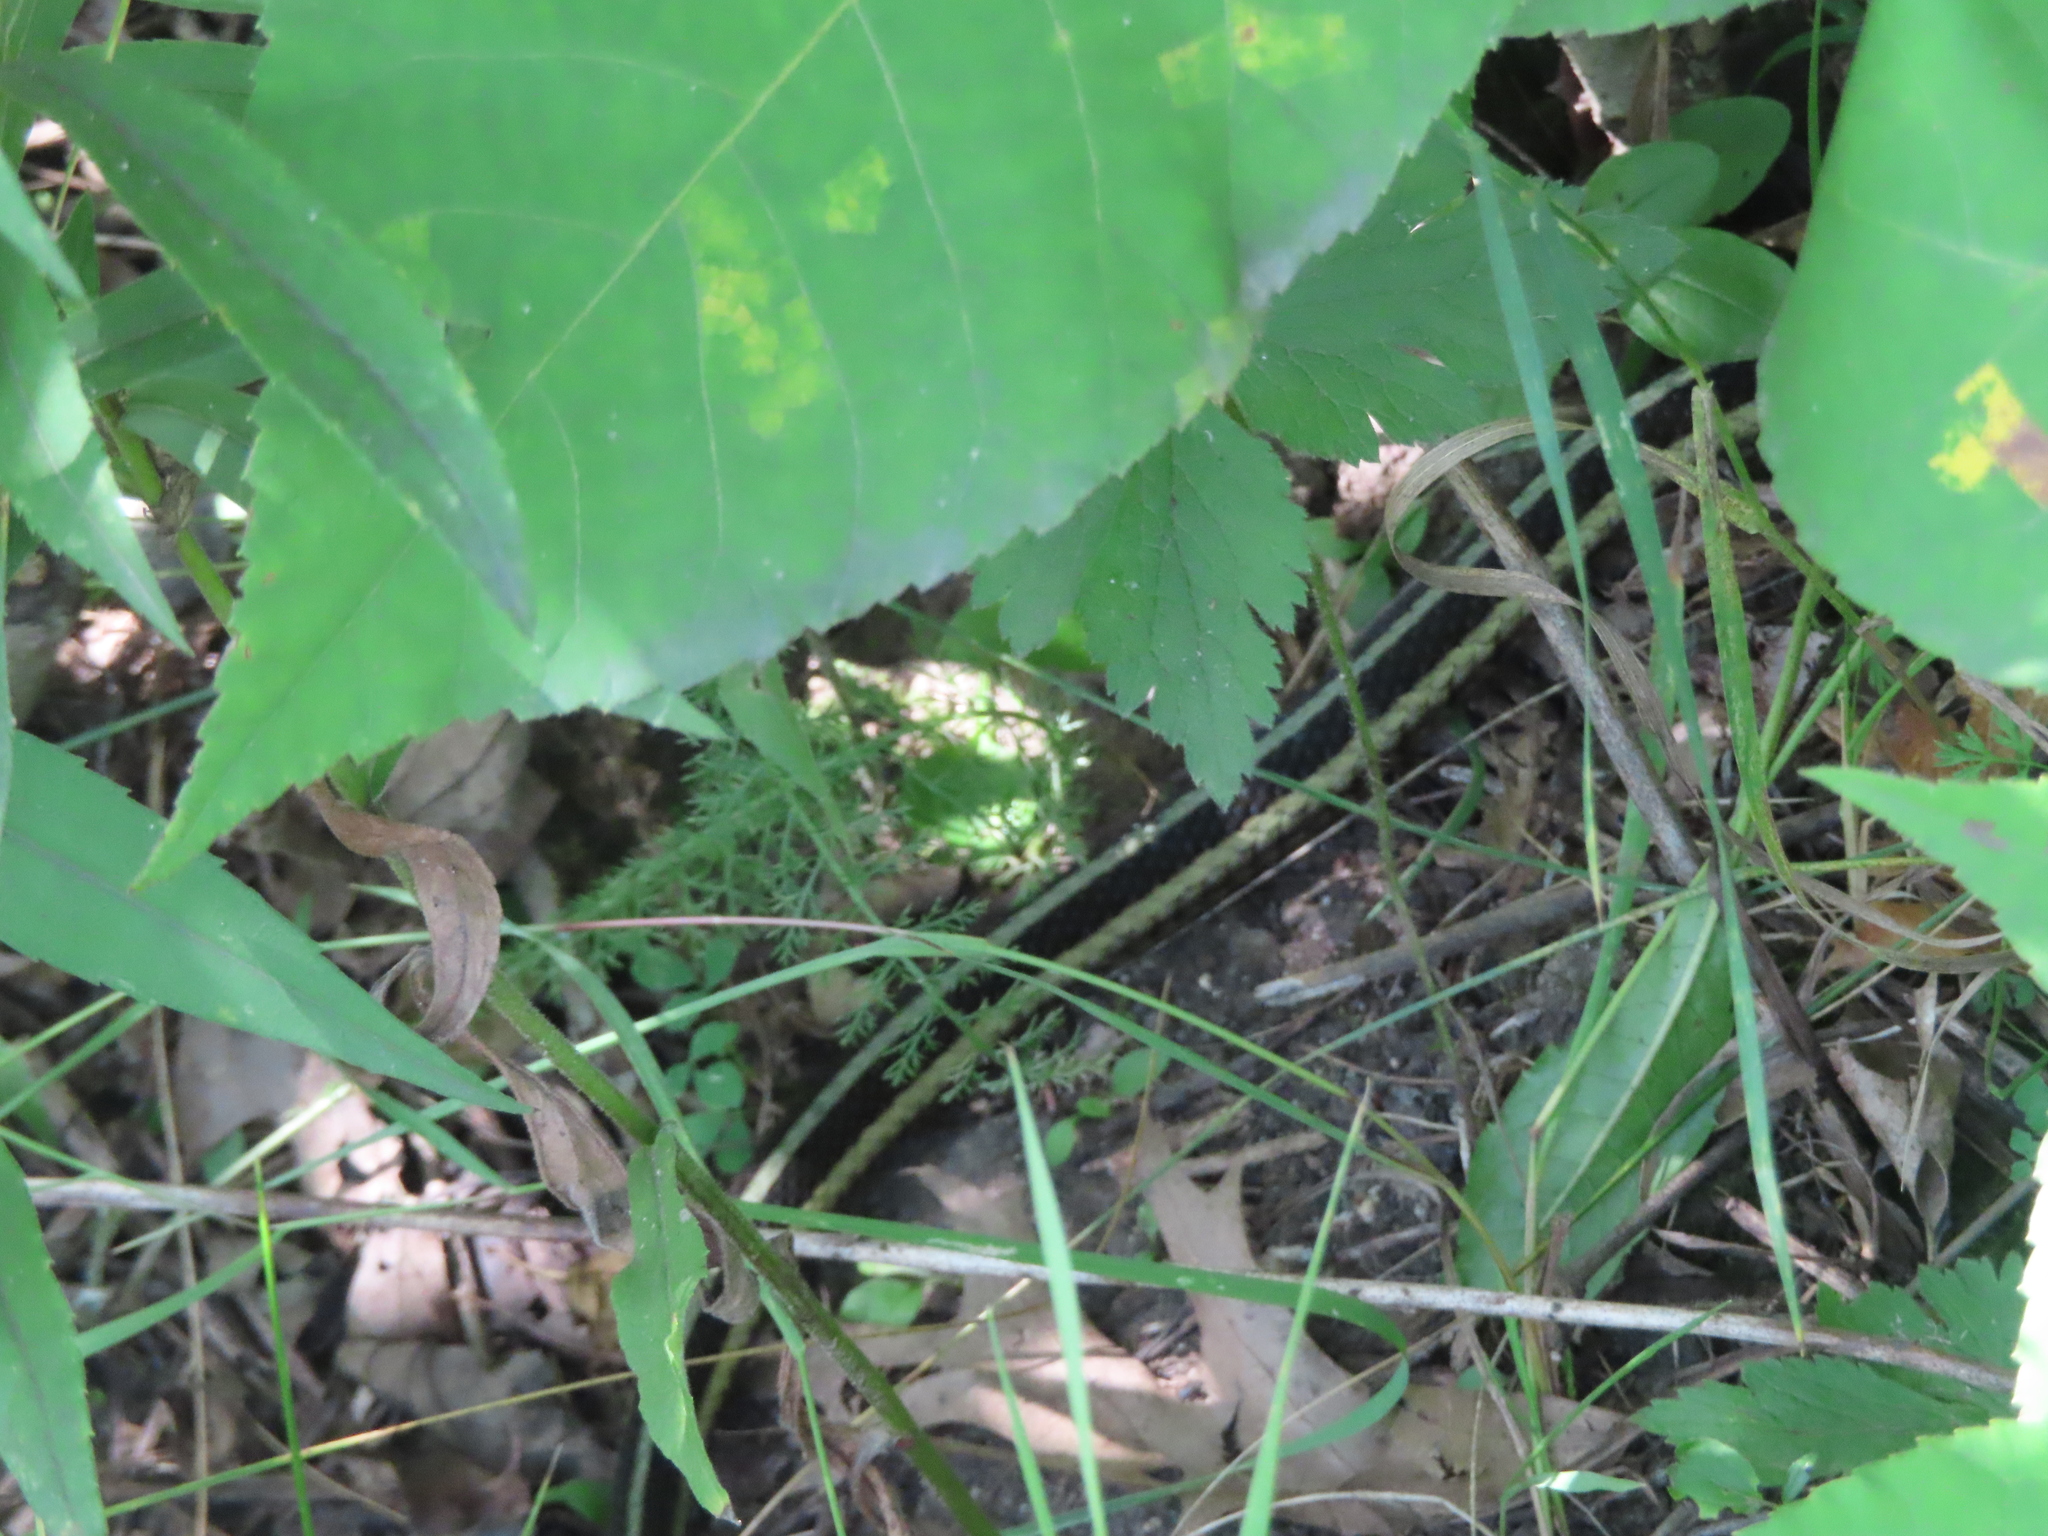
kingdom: Animalia
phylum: Chordata
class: Squamata
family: Colubridae
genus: Thamnophis
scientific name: Thamnophis sirtalis
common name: Common garter snake
